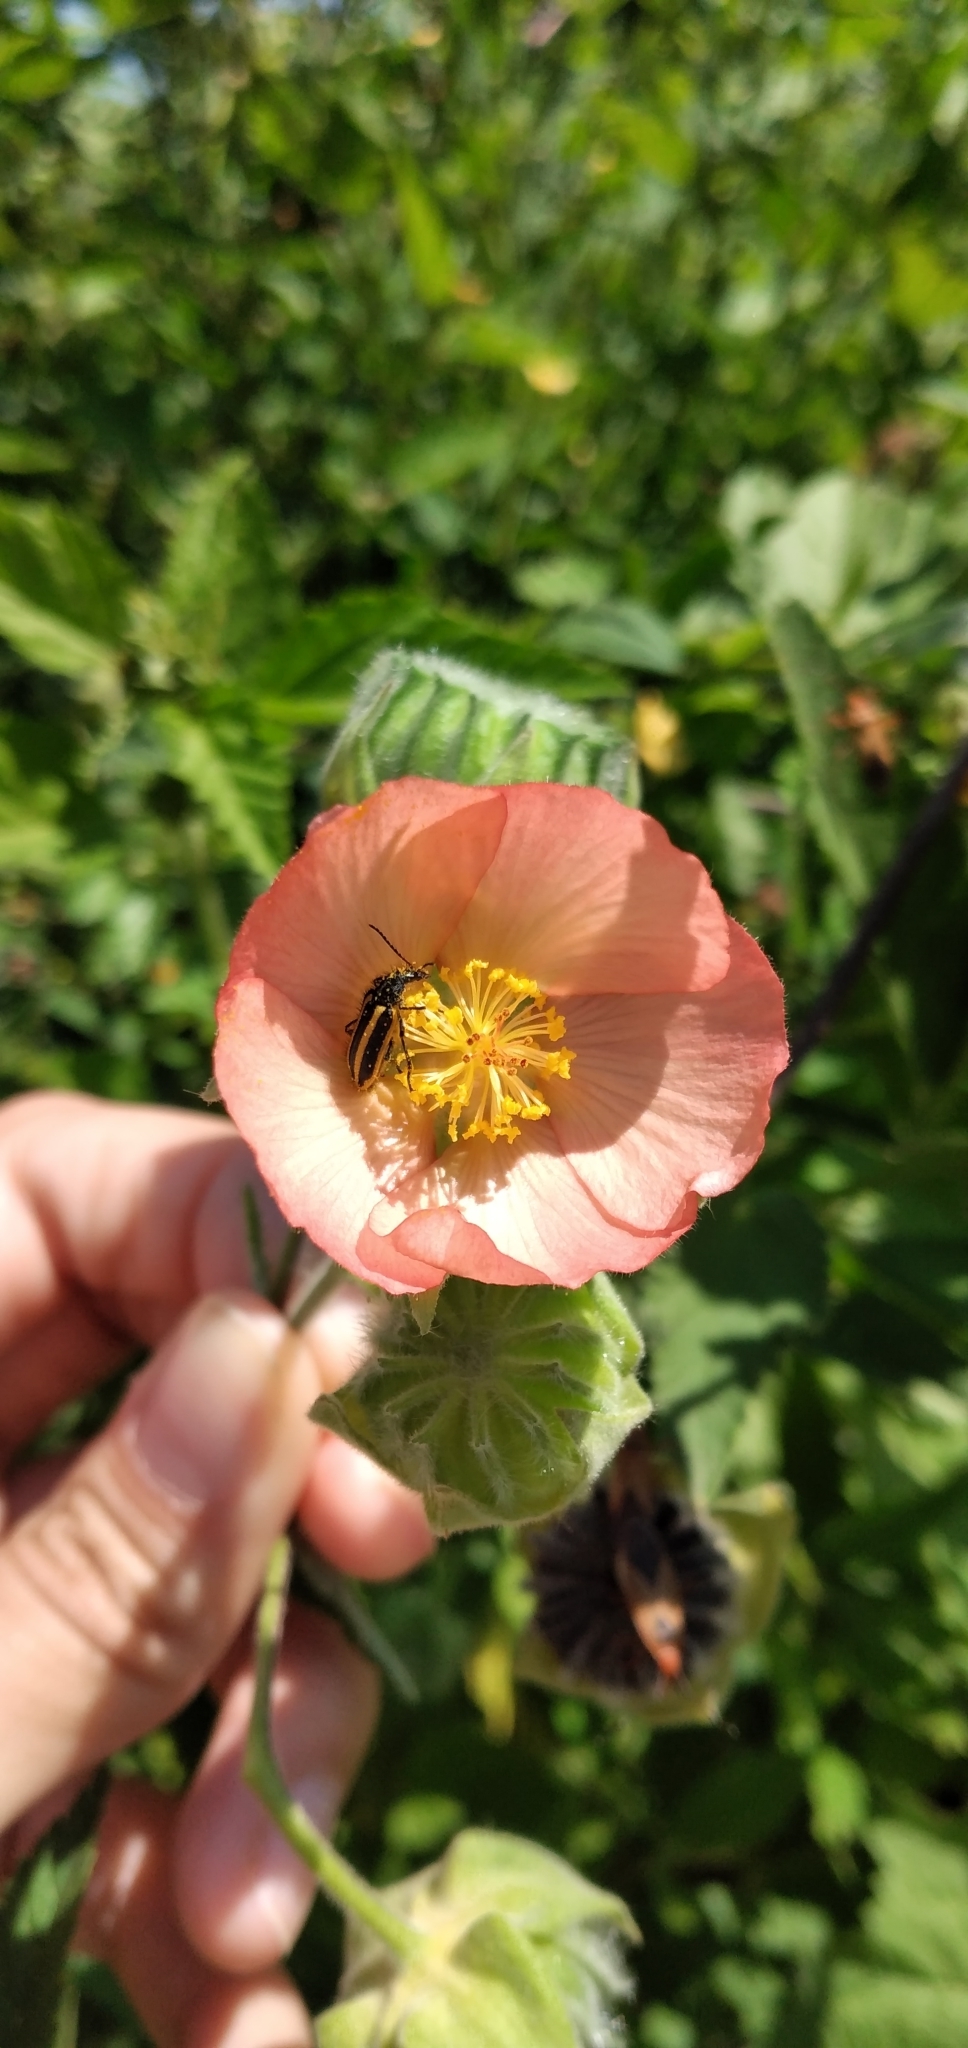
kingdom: Plantae
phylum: Tracheophyta
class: Magnoliopsida
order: Malvales
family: Malvaceae
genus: Callianthe
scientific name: Callianthe pauciflora
